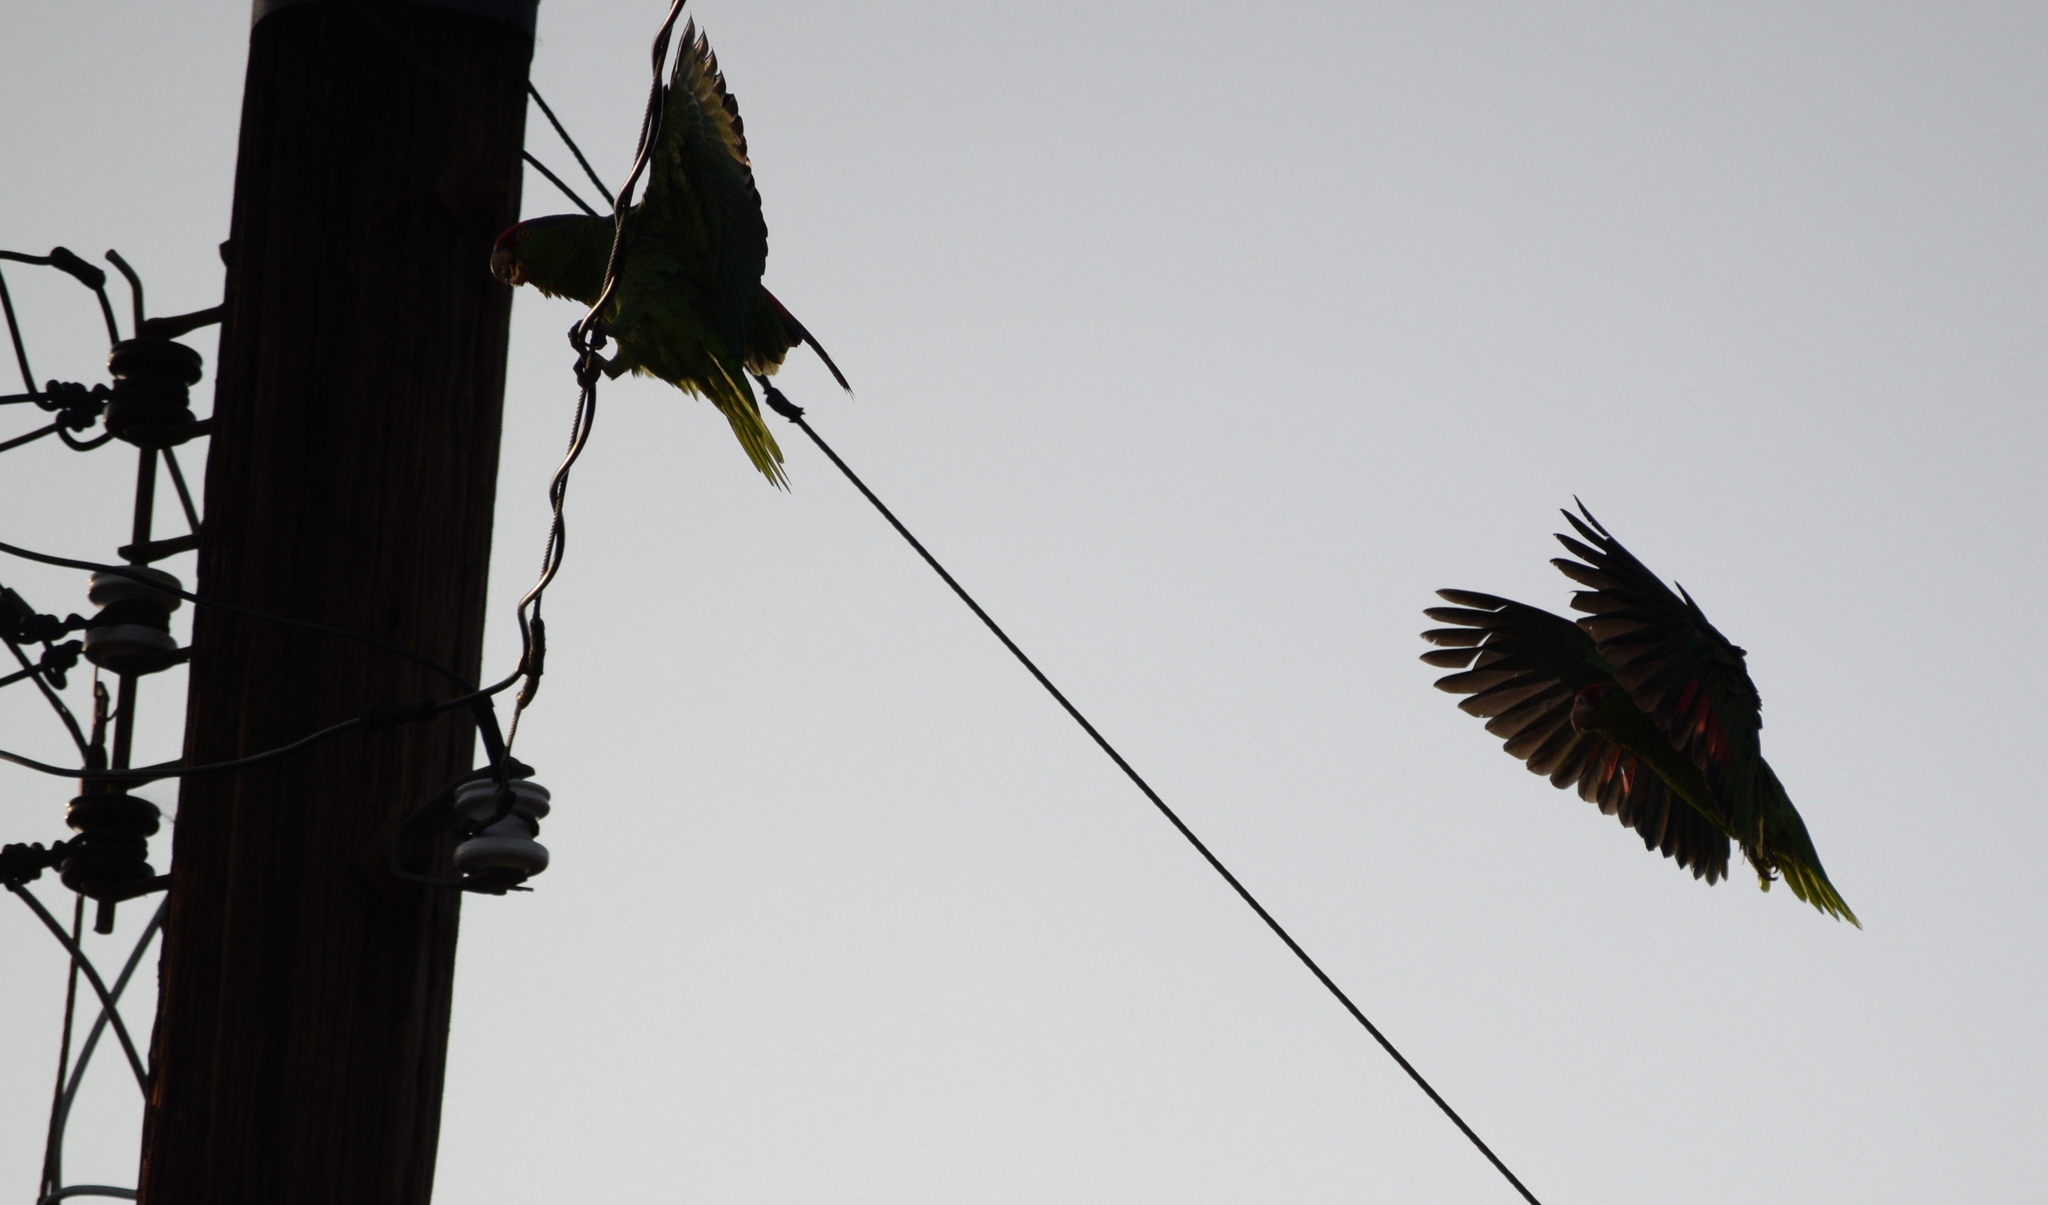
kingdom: Animalia
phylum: Chordata
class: Aves
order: Psittaciformes
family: Psittacidae
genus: Amazona
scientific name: Amazona viridigenalis
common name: Red-crowned amazon
